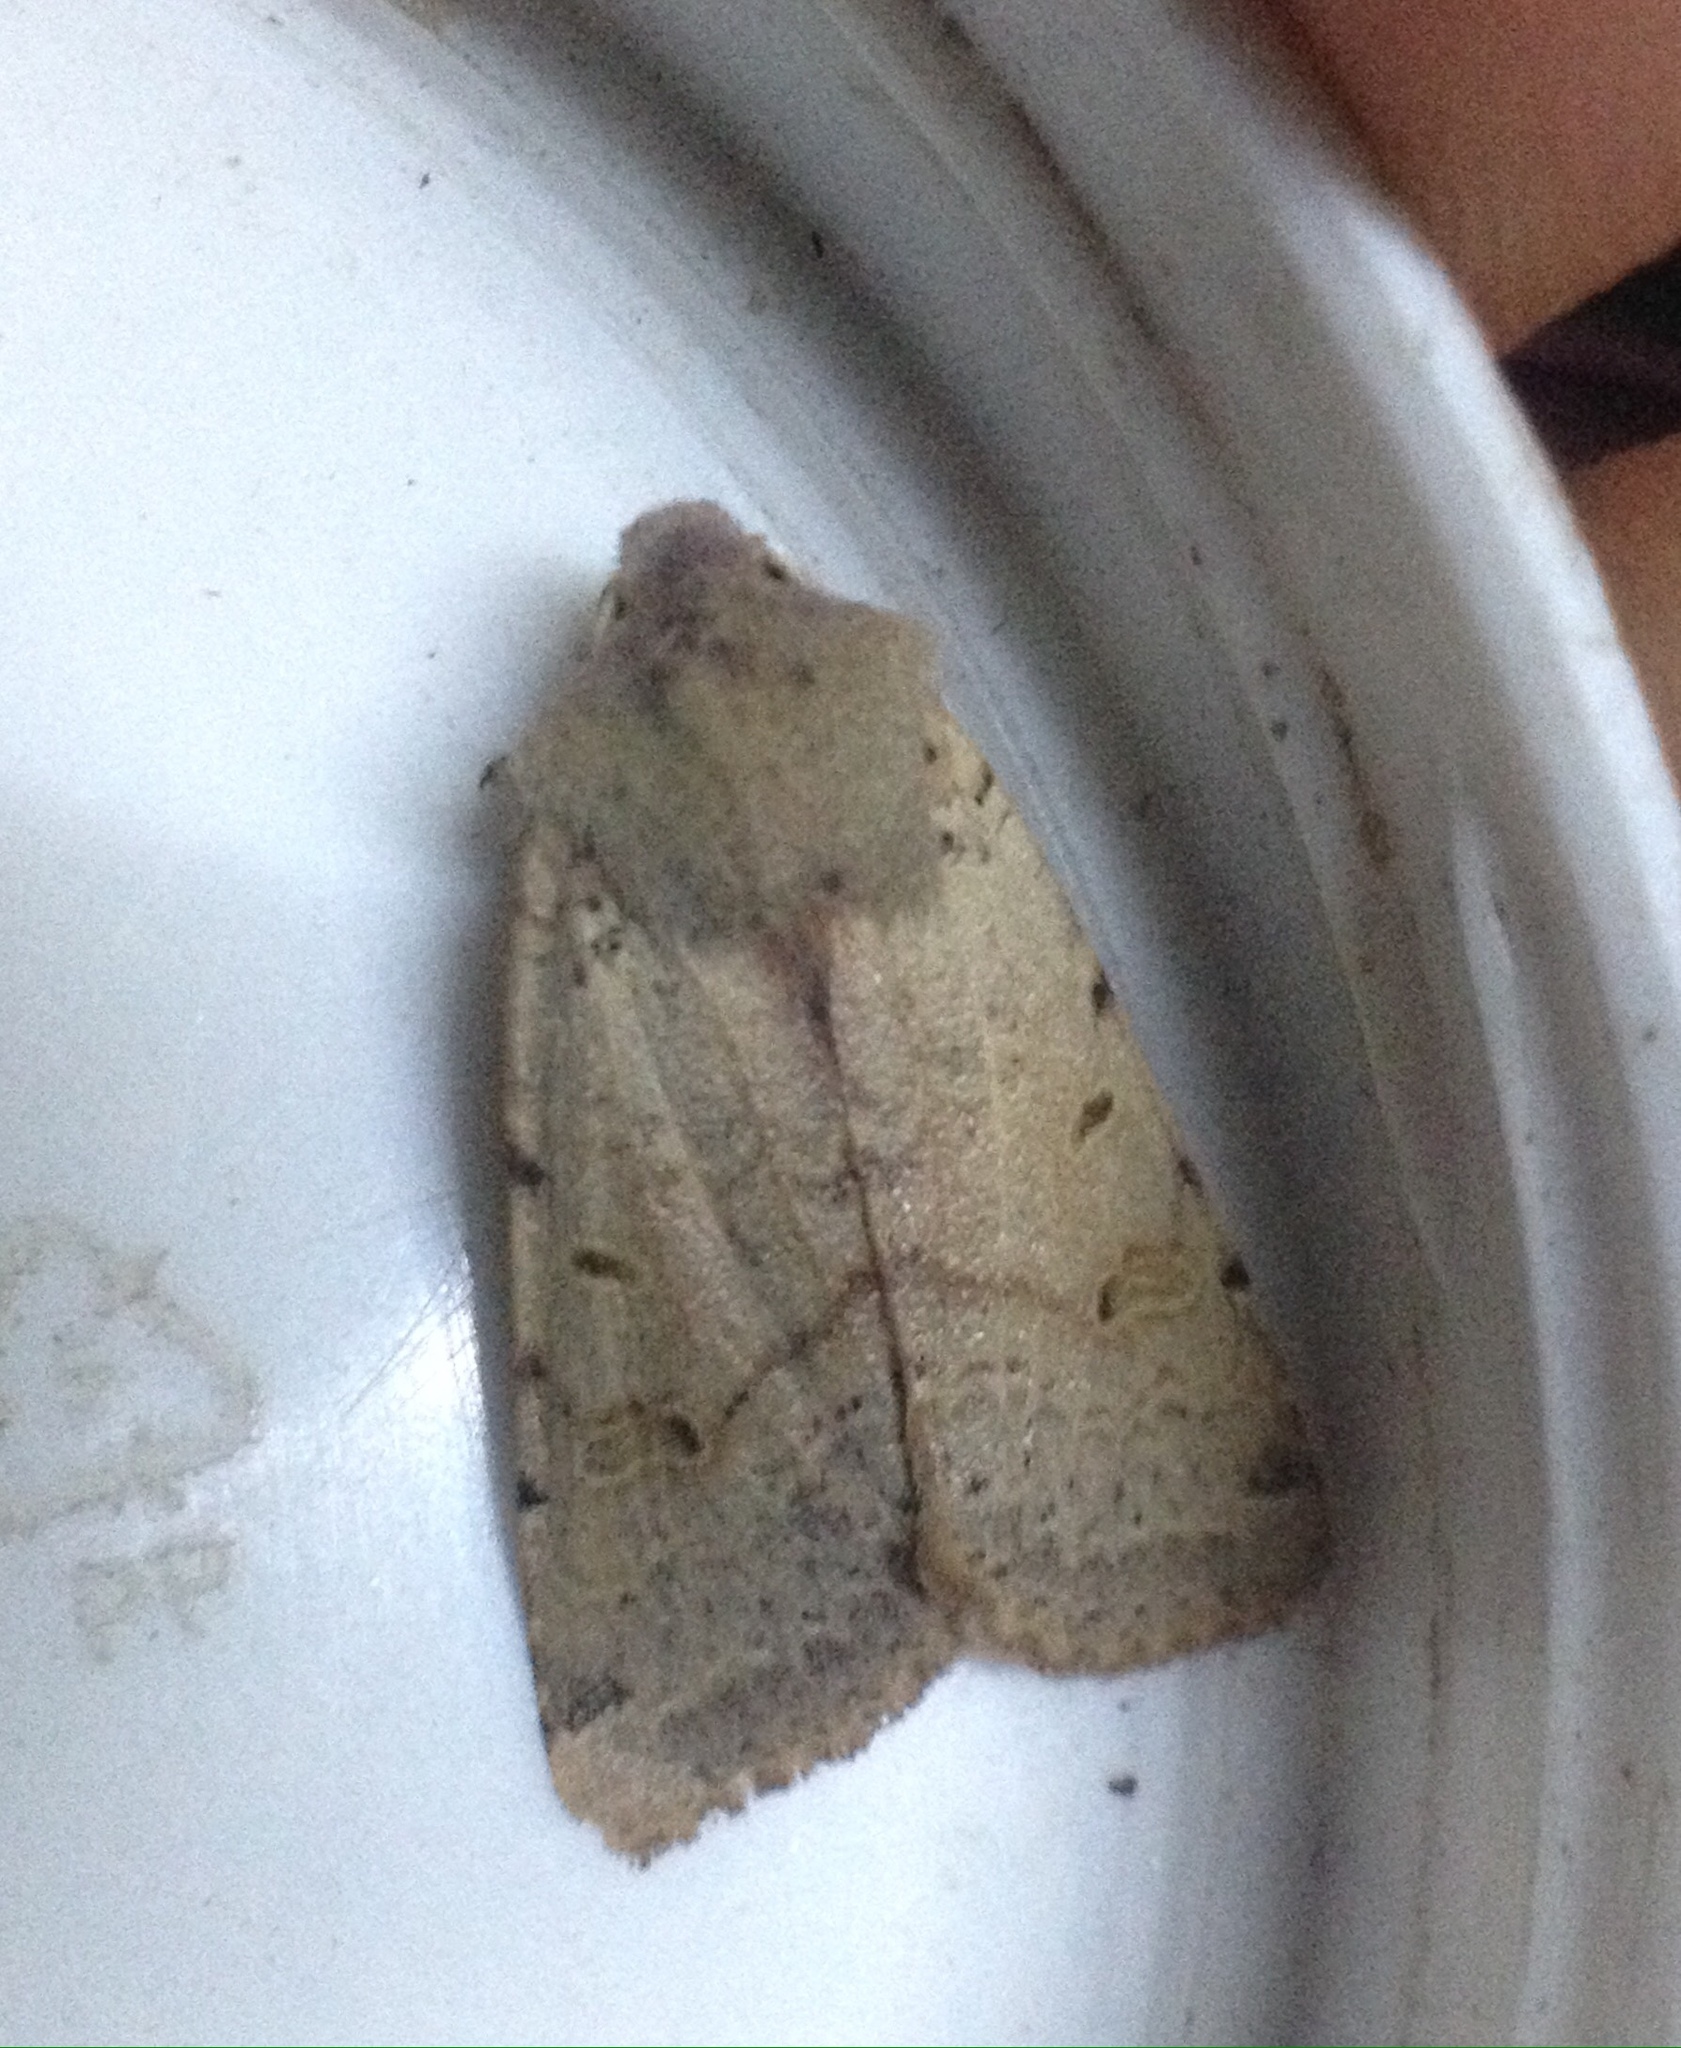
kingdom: Animalia
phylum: Arthropoda
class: Insecta
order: Lepidoptera
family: Noctuidae
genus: Agrochola
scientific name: Agrochola lychnidis
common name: Beaded chestnut
